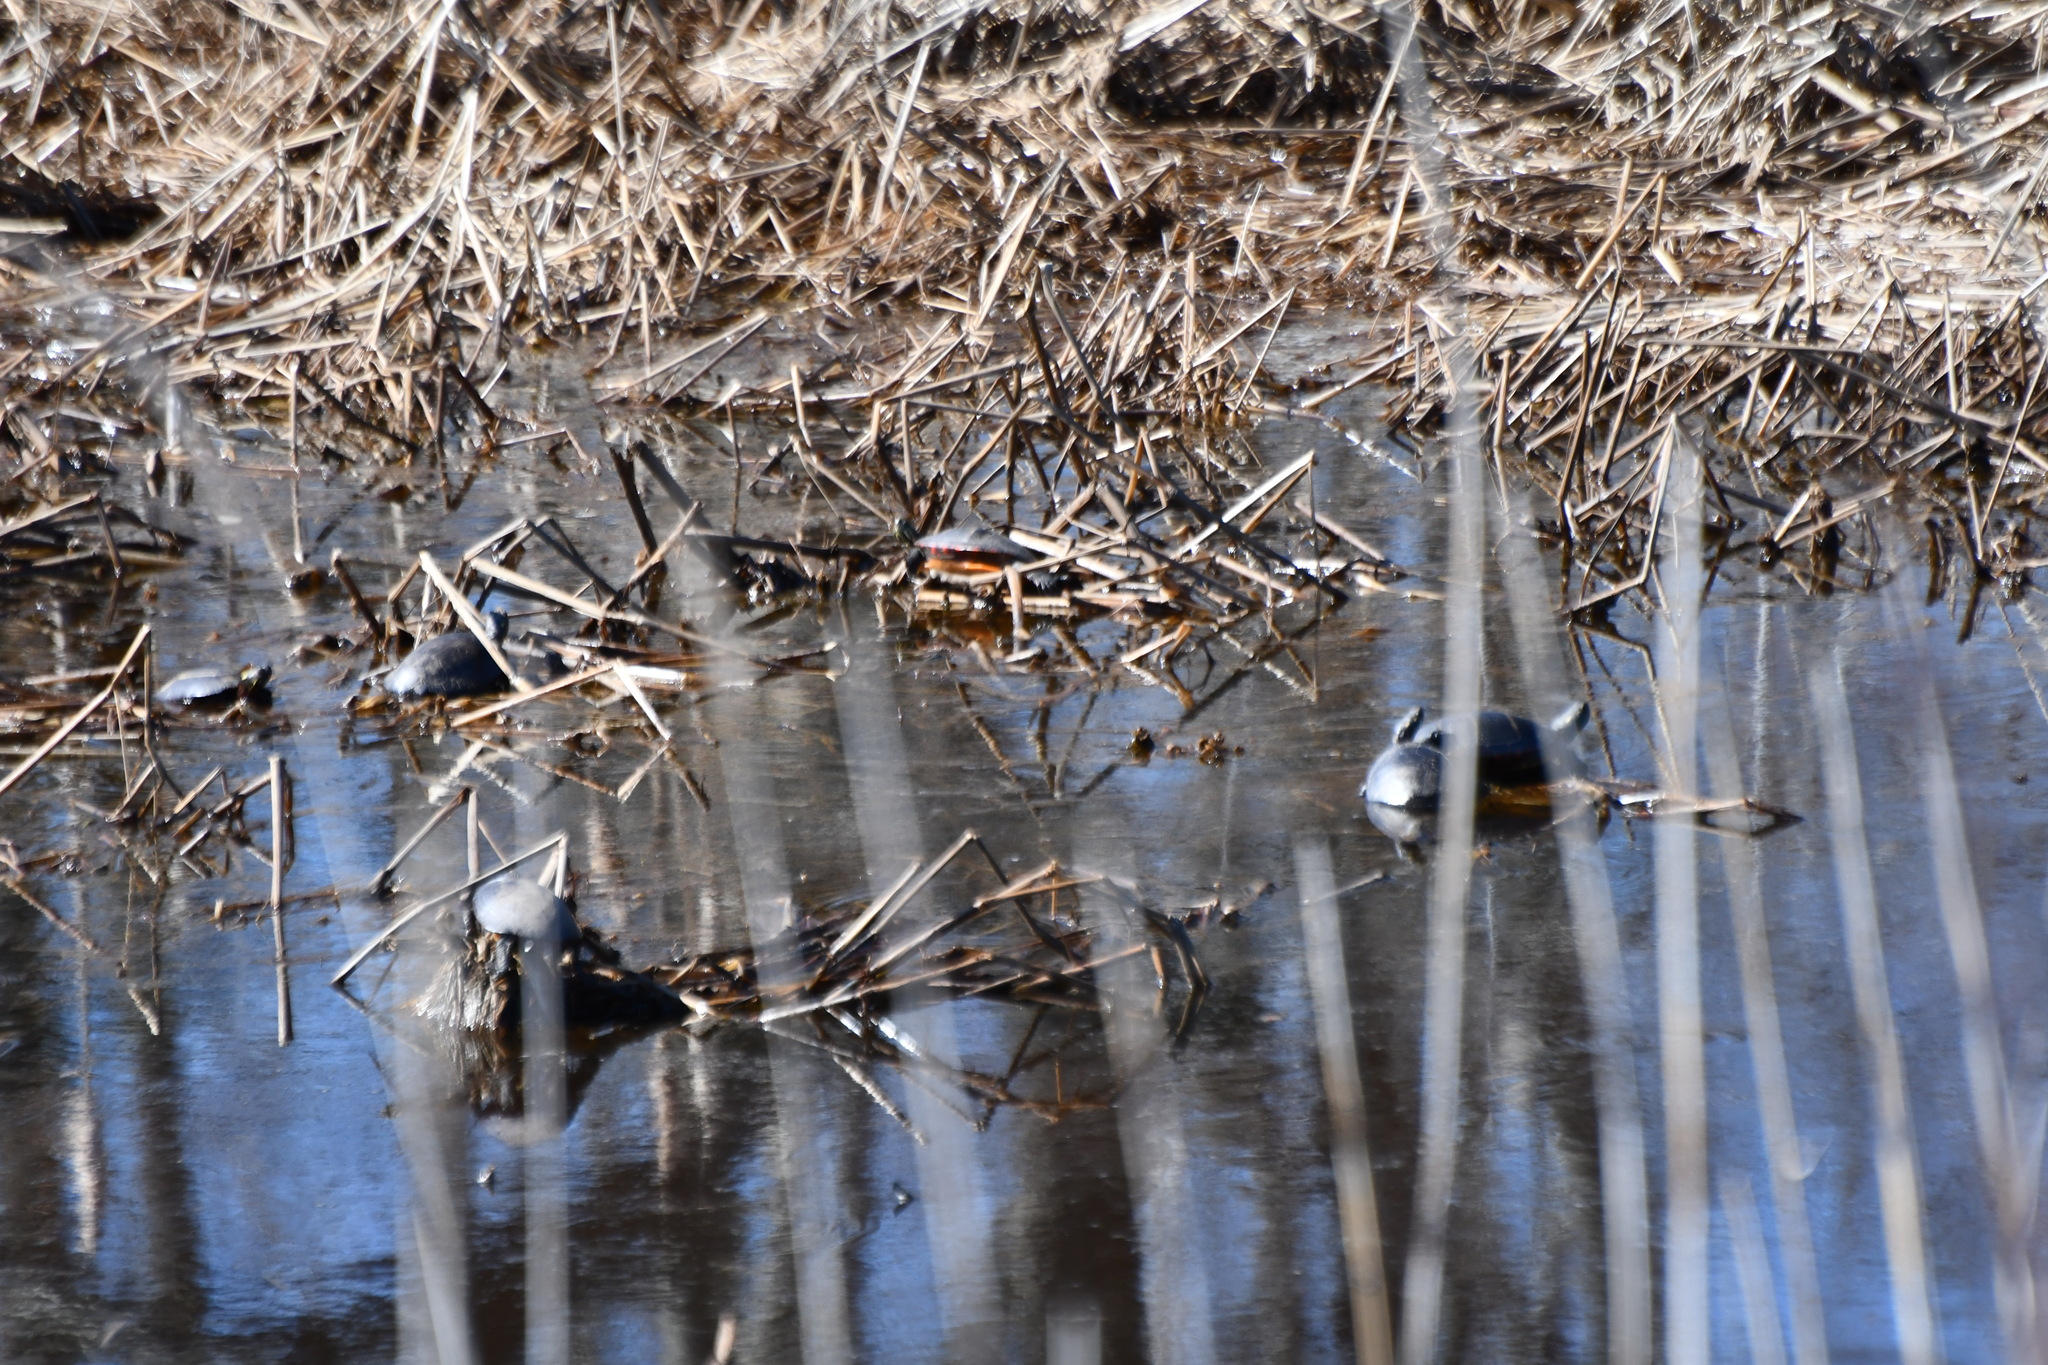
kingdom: Animalia
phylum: Chordata
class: Testudines
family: Emydidae
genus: Chrysemys
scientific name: Chrysemys picta
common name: Painted turtle
